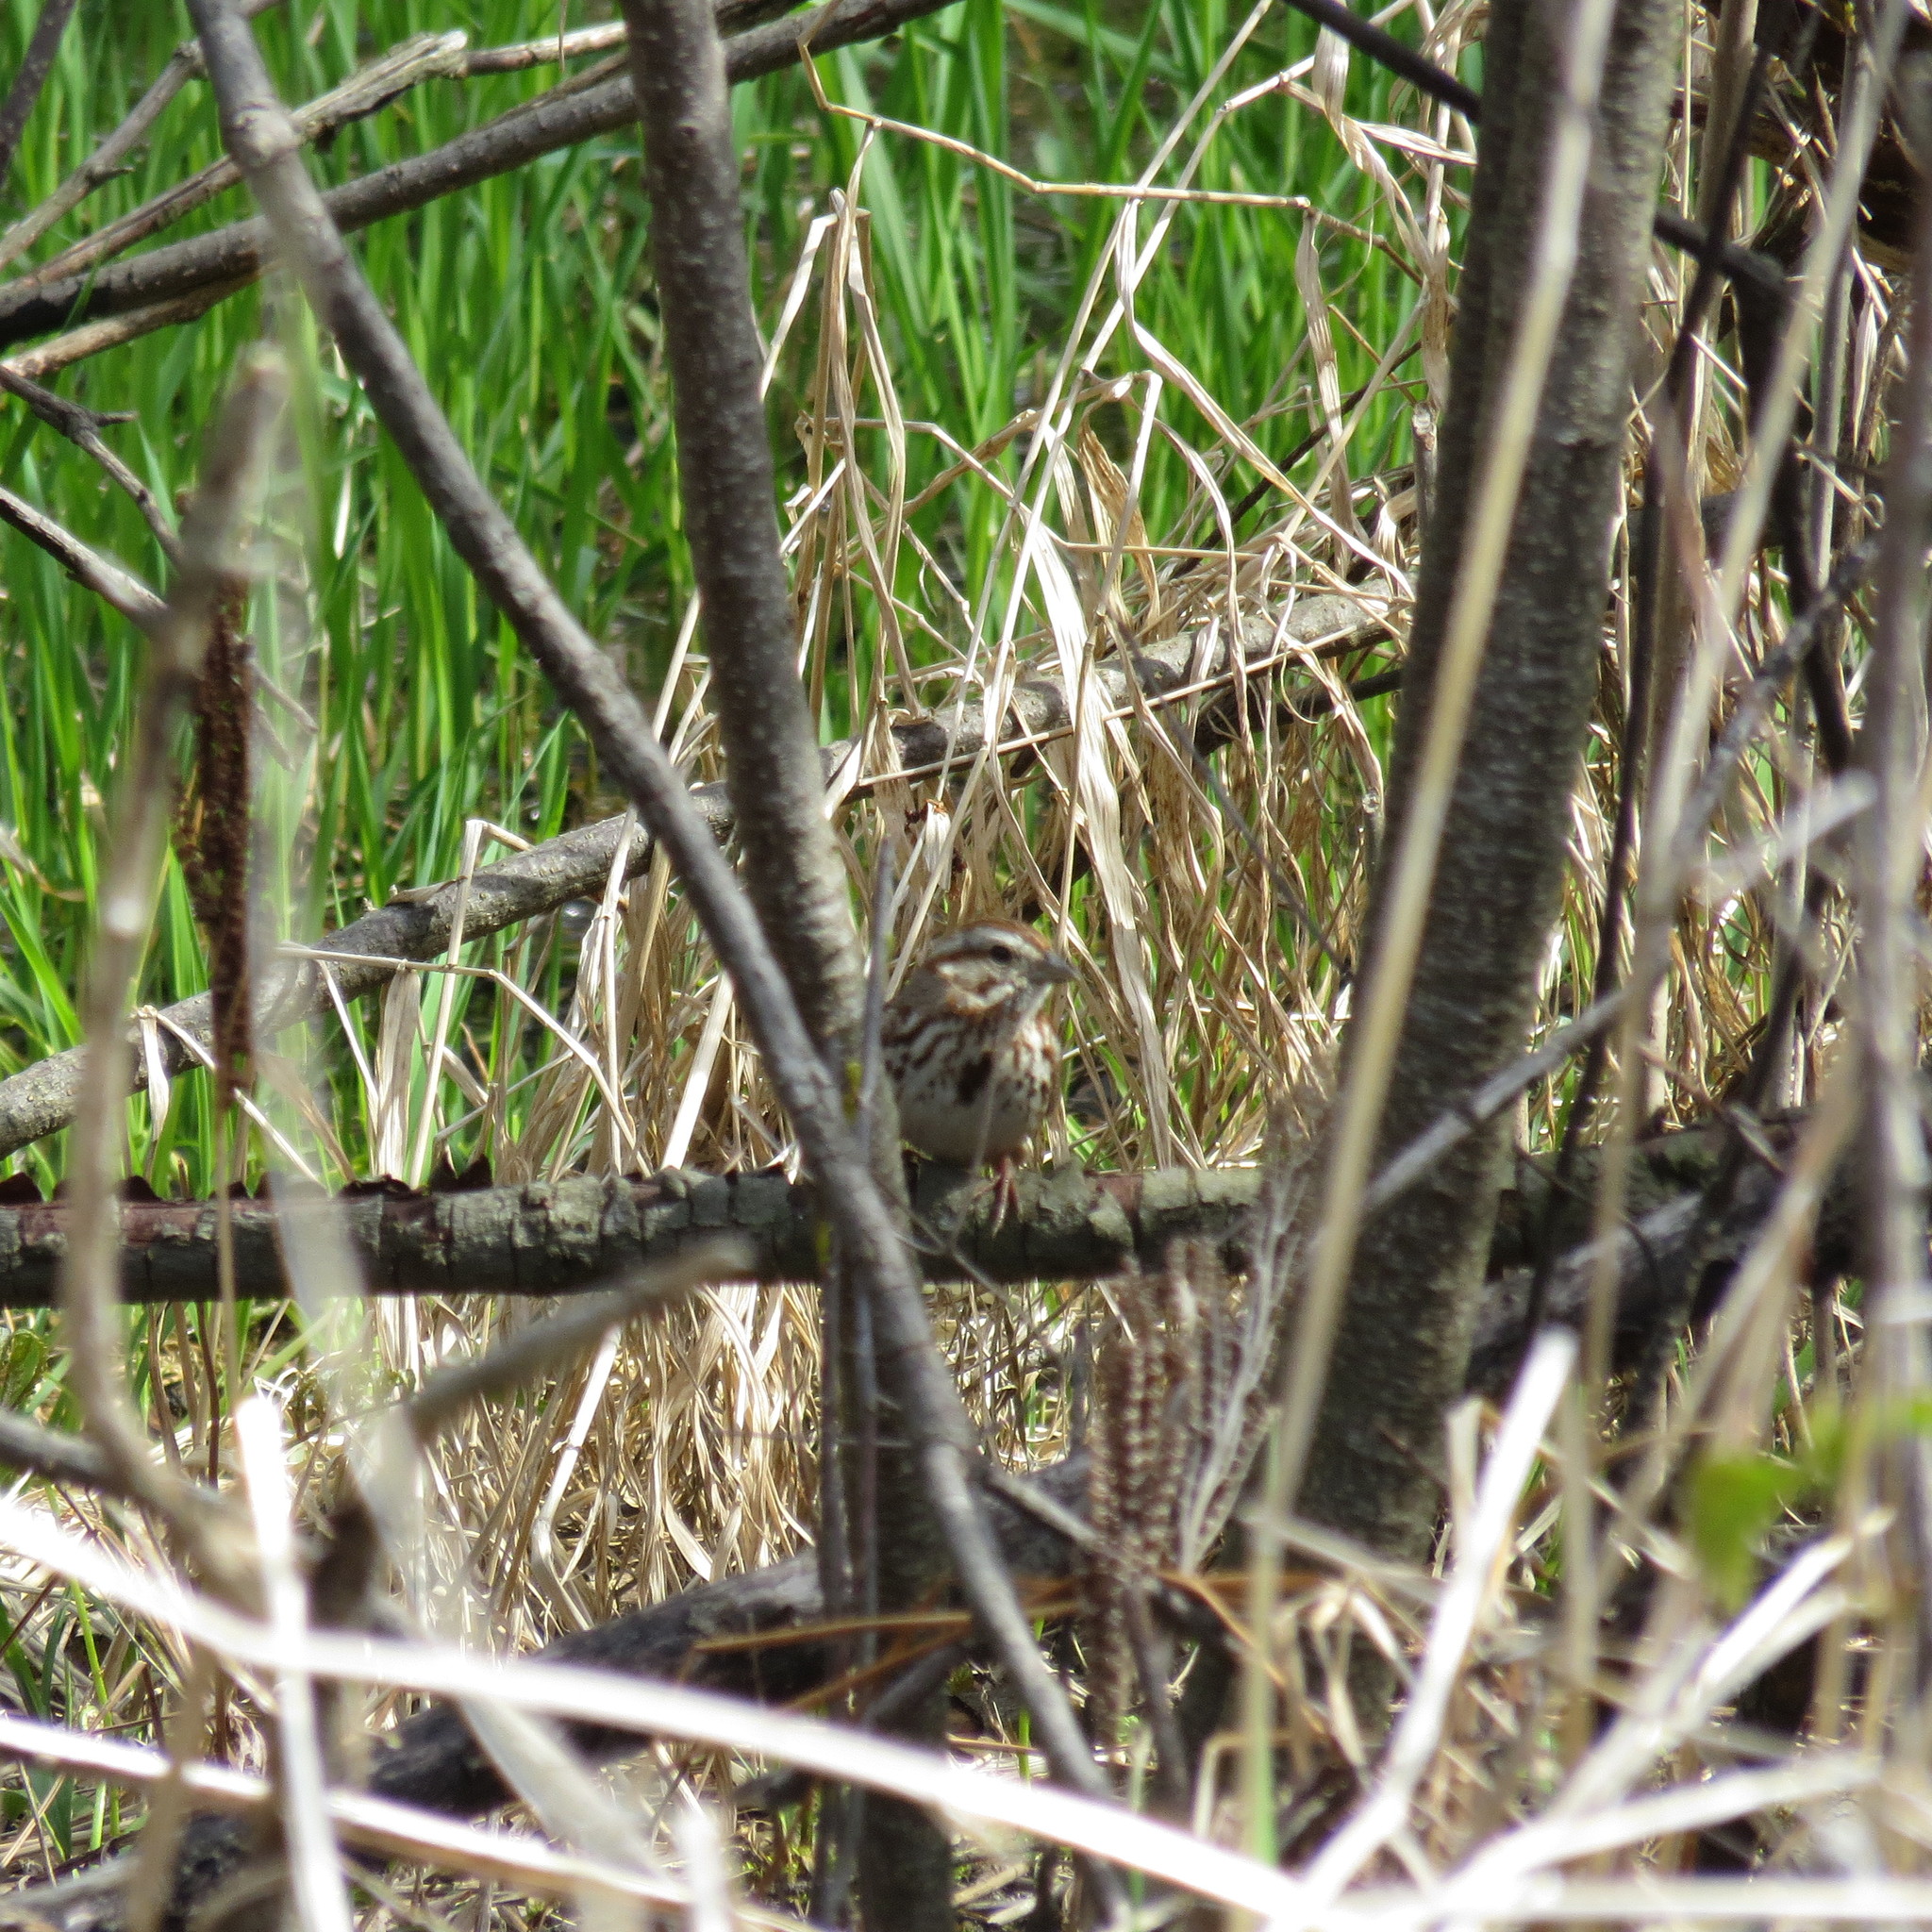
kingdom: Animalia
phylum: Chordata
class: Aves
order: Passeriformes
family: Passerellidae
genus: Melospiza
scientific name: Melospiza melodia
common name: Song sparrow
